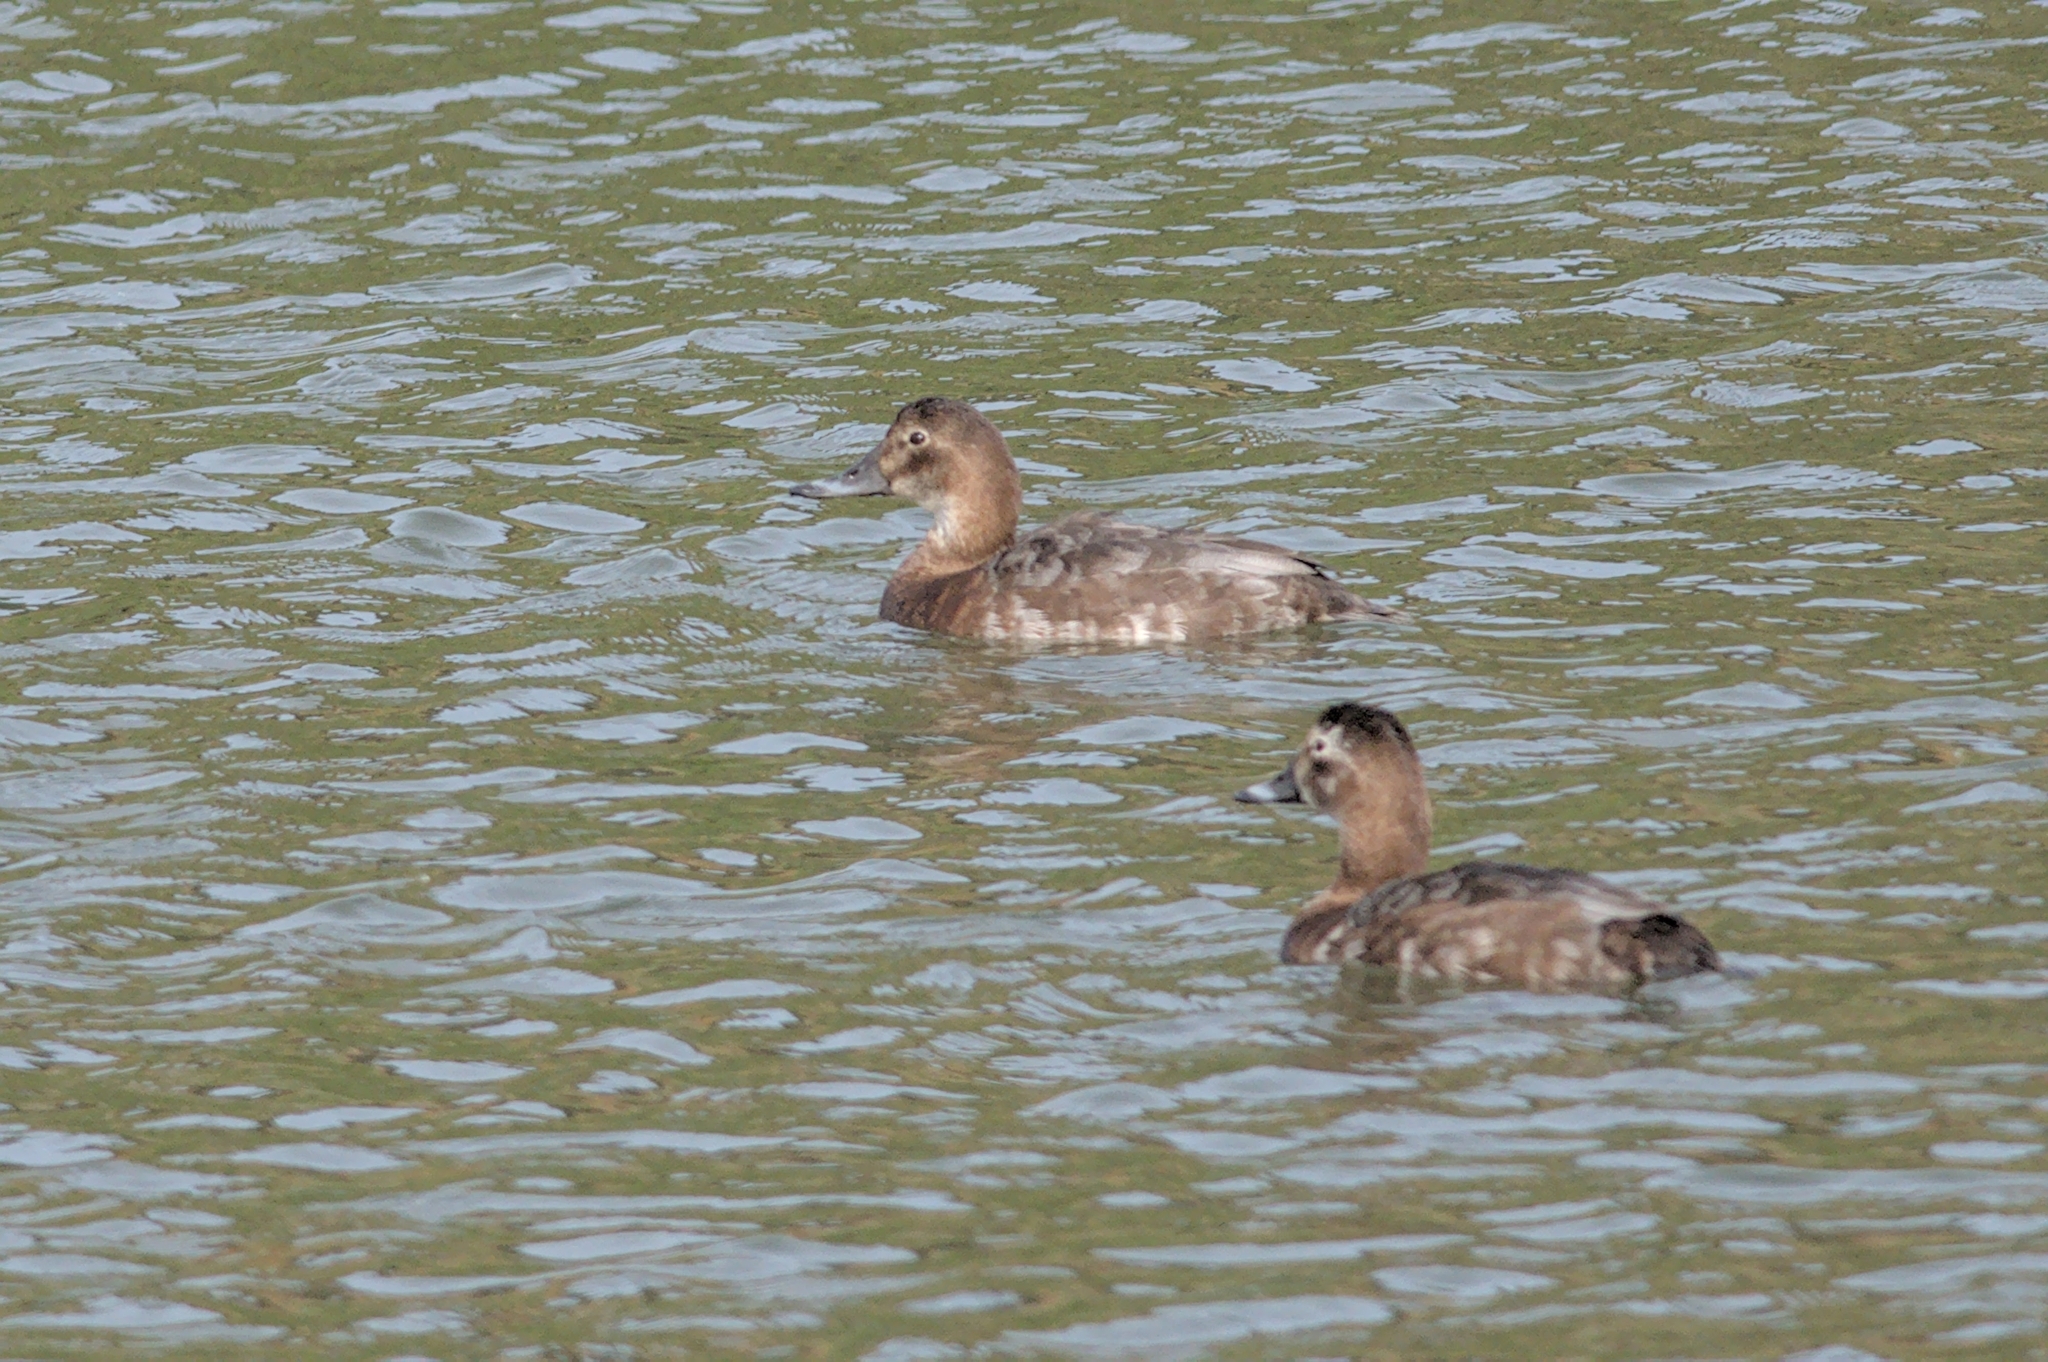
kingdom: Animalia
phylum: Chordata
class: Aves
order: Anseriformes
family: Anatidae
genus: Aythya
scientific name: Aythya ferina
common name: Common pochard
